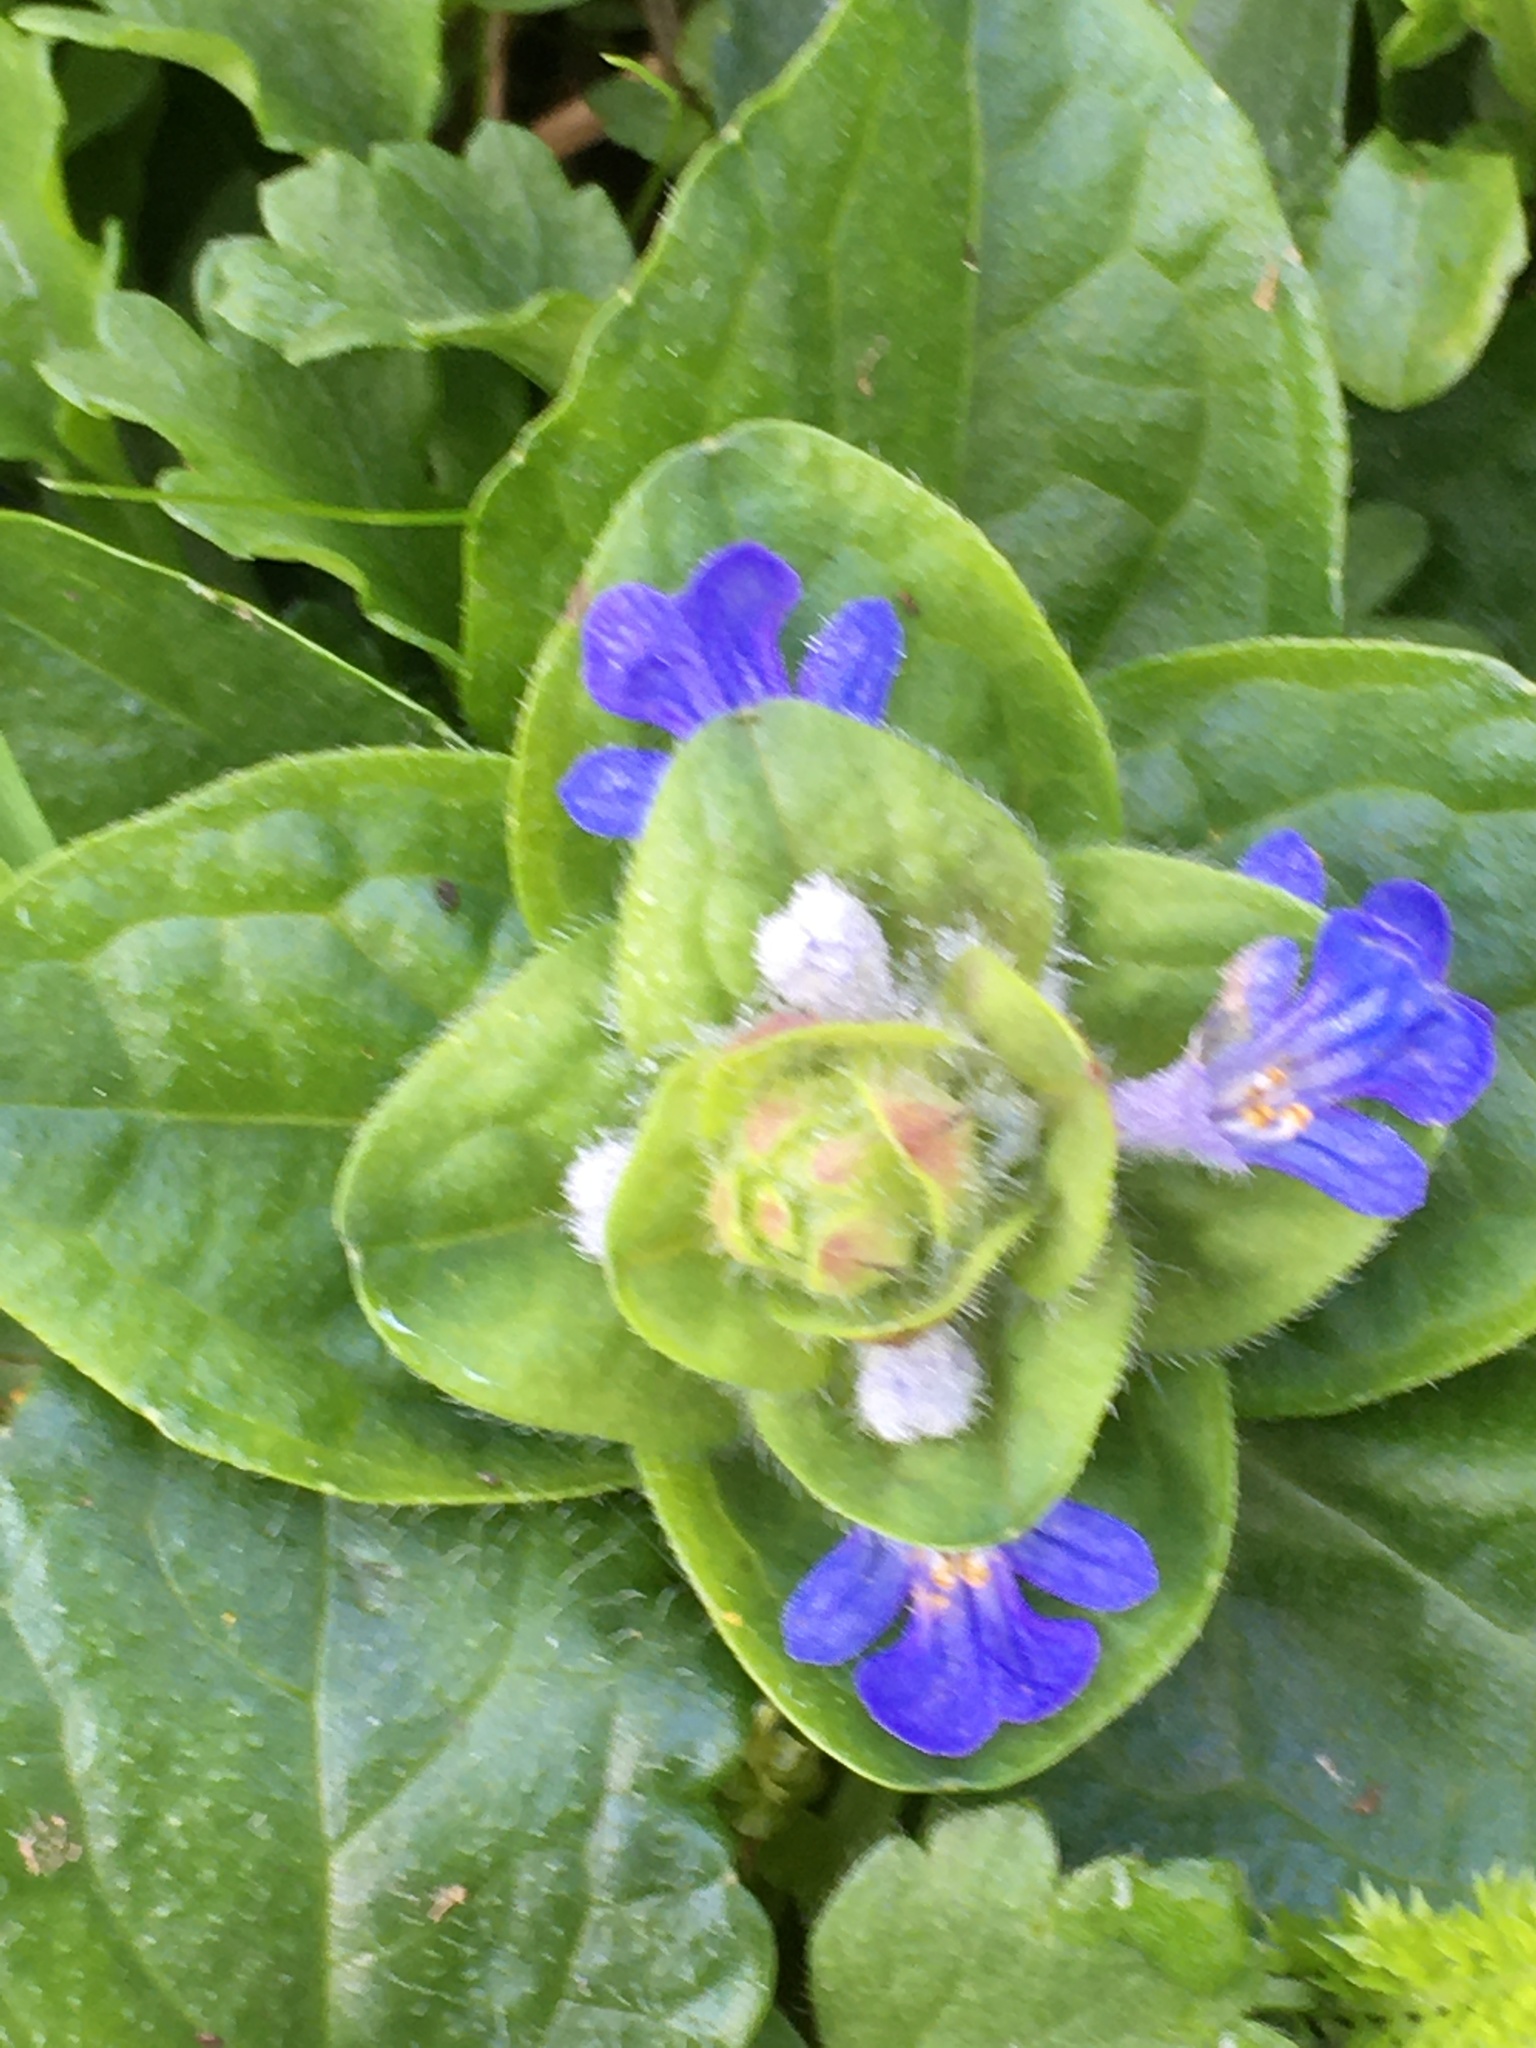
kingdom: Plantae
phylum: Tracheophyta
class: Magnoliopsida
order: Lamiales
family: Lamiaceae
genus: Ajuga
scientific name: Ajuga reptans
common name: Bugle
